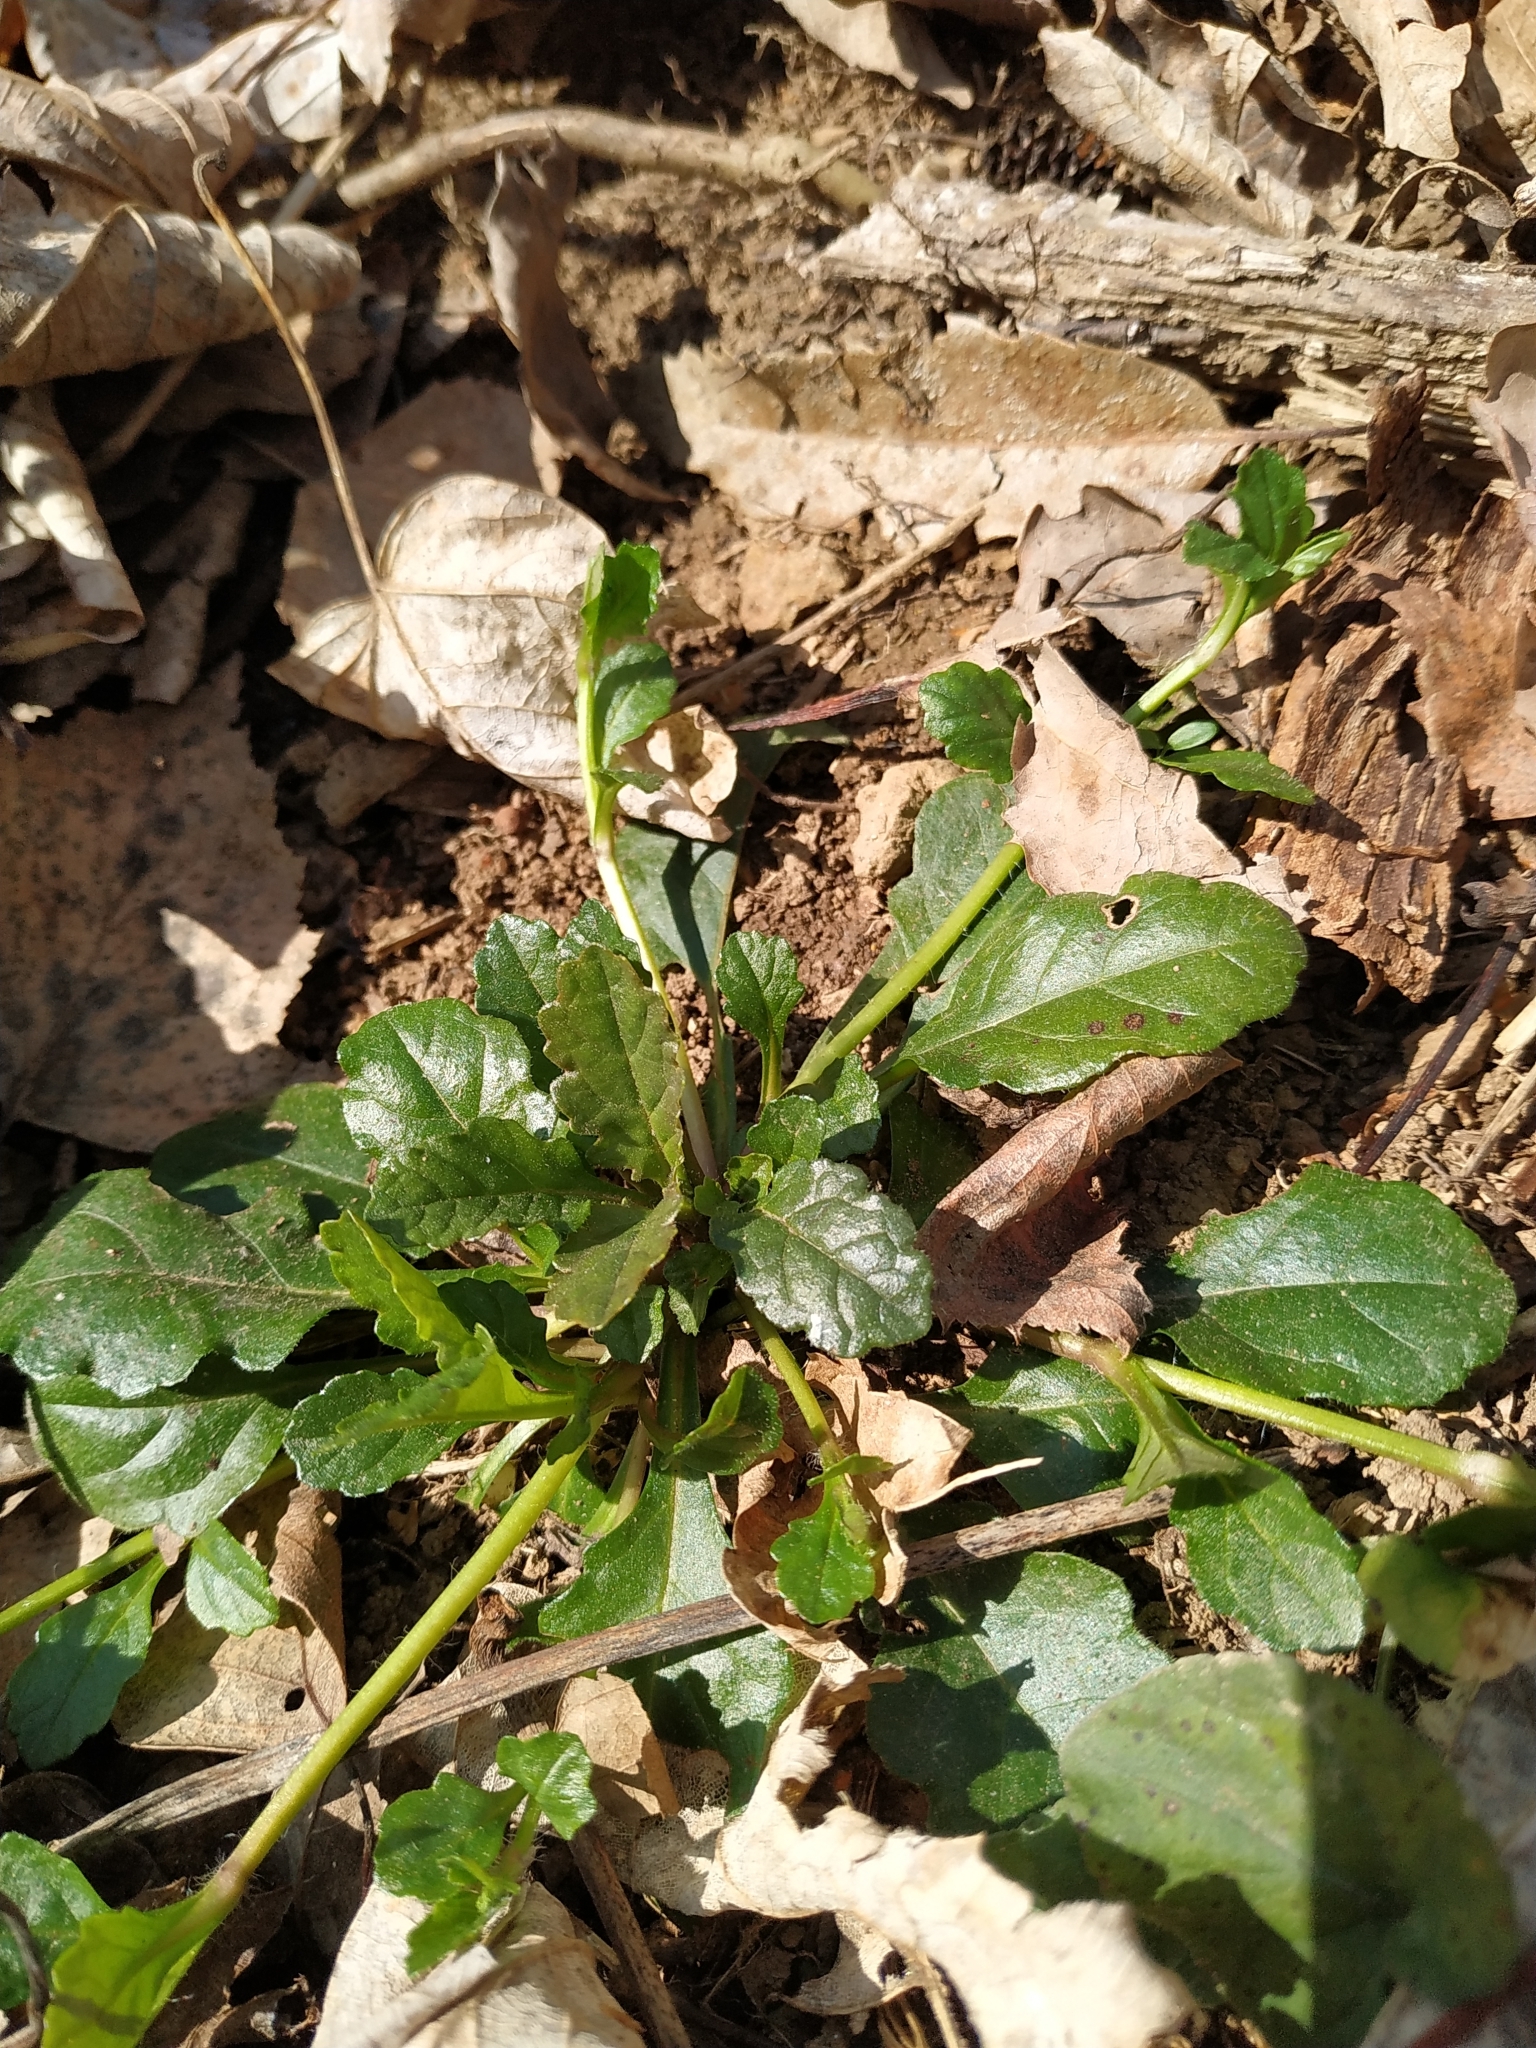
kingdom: Plantae
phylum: Tracheophyta
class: Magnoliopsida
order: Lamiales
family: Lamiaceae
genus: Ajuga
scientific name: Ajuga reptans
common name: Bugle
